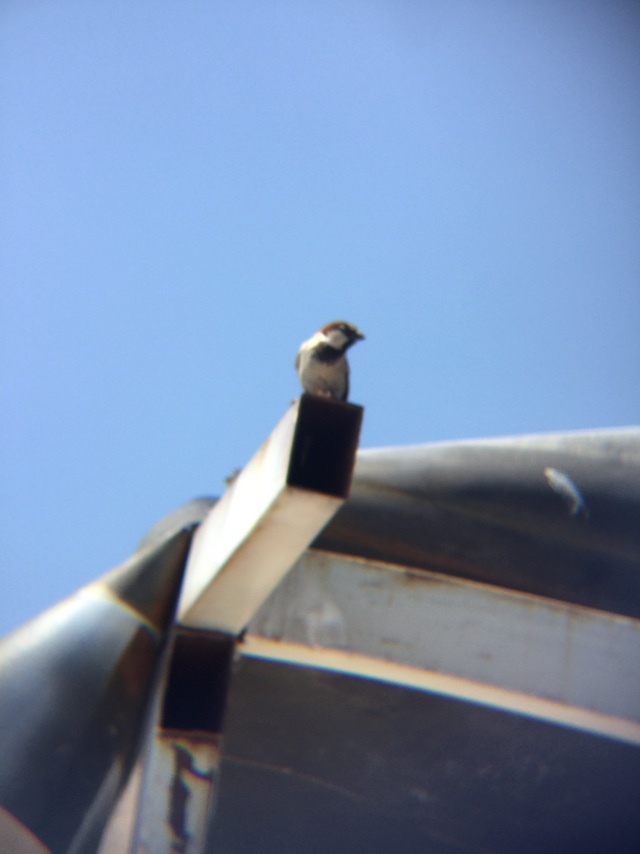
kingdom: Animalia
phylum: Chordata
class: Aves
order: Passeriformes
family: Passeridae
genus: Passer
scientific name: Passer domesticus
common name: House sparrow
